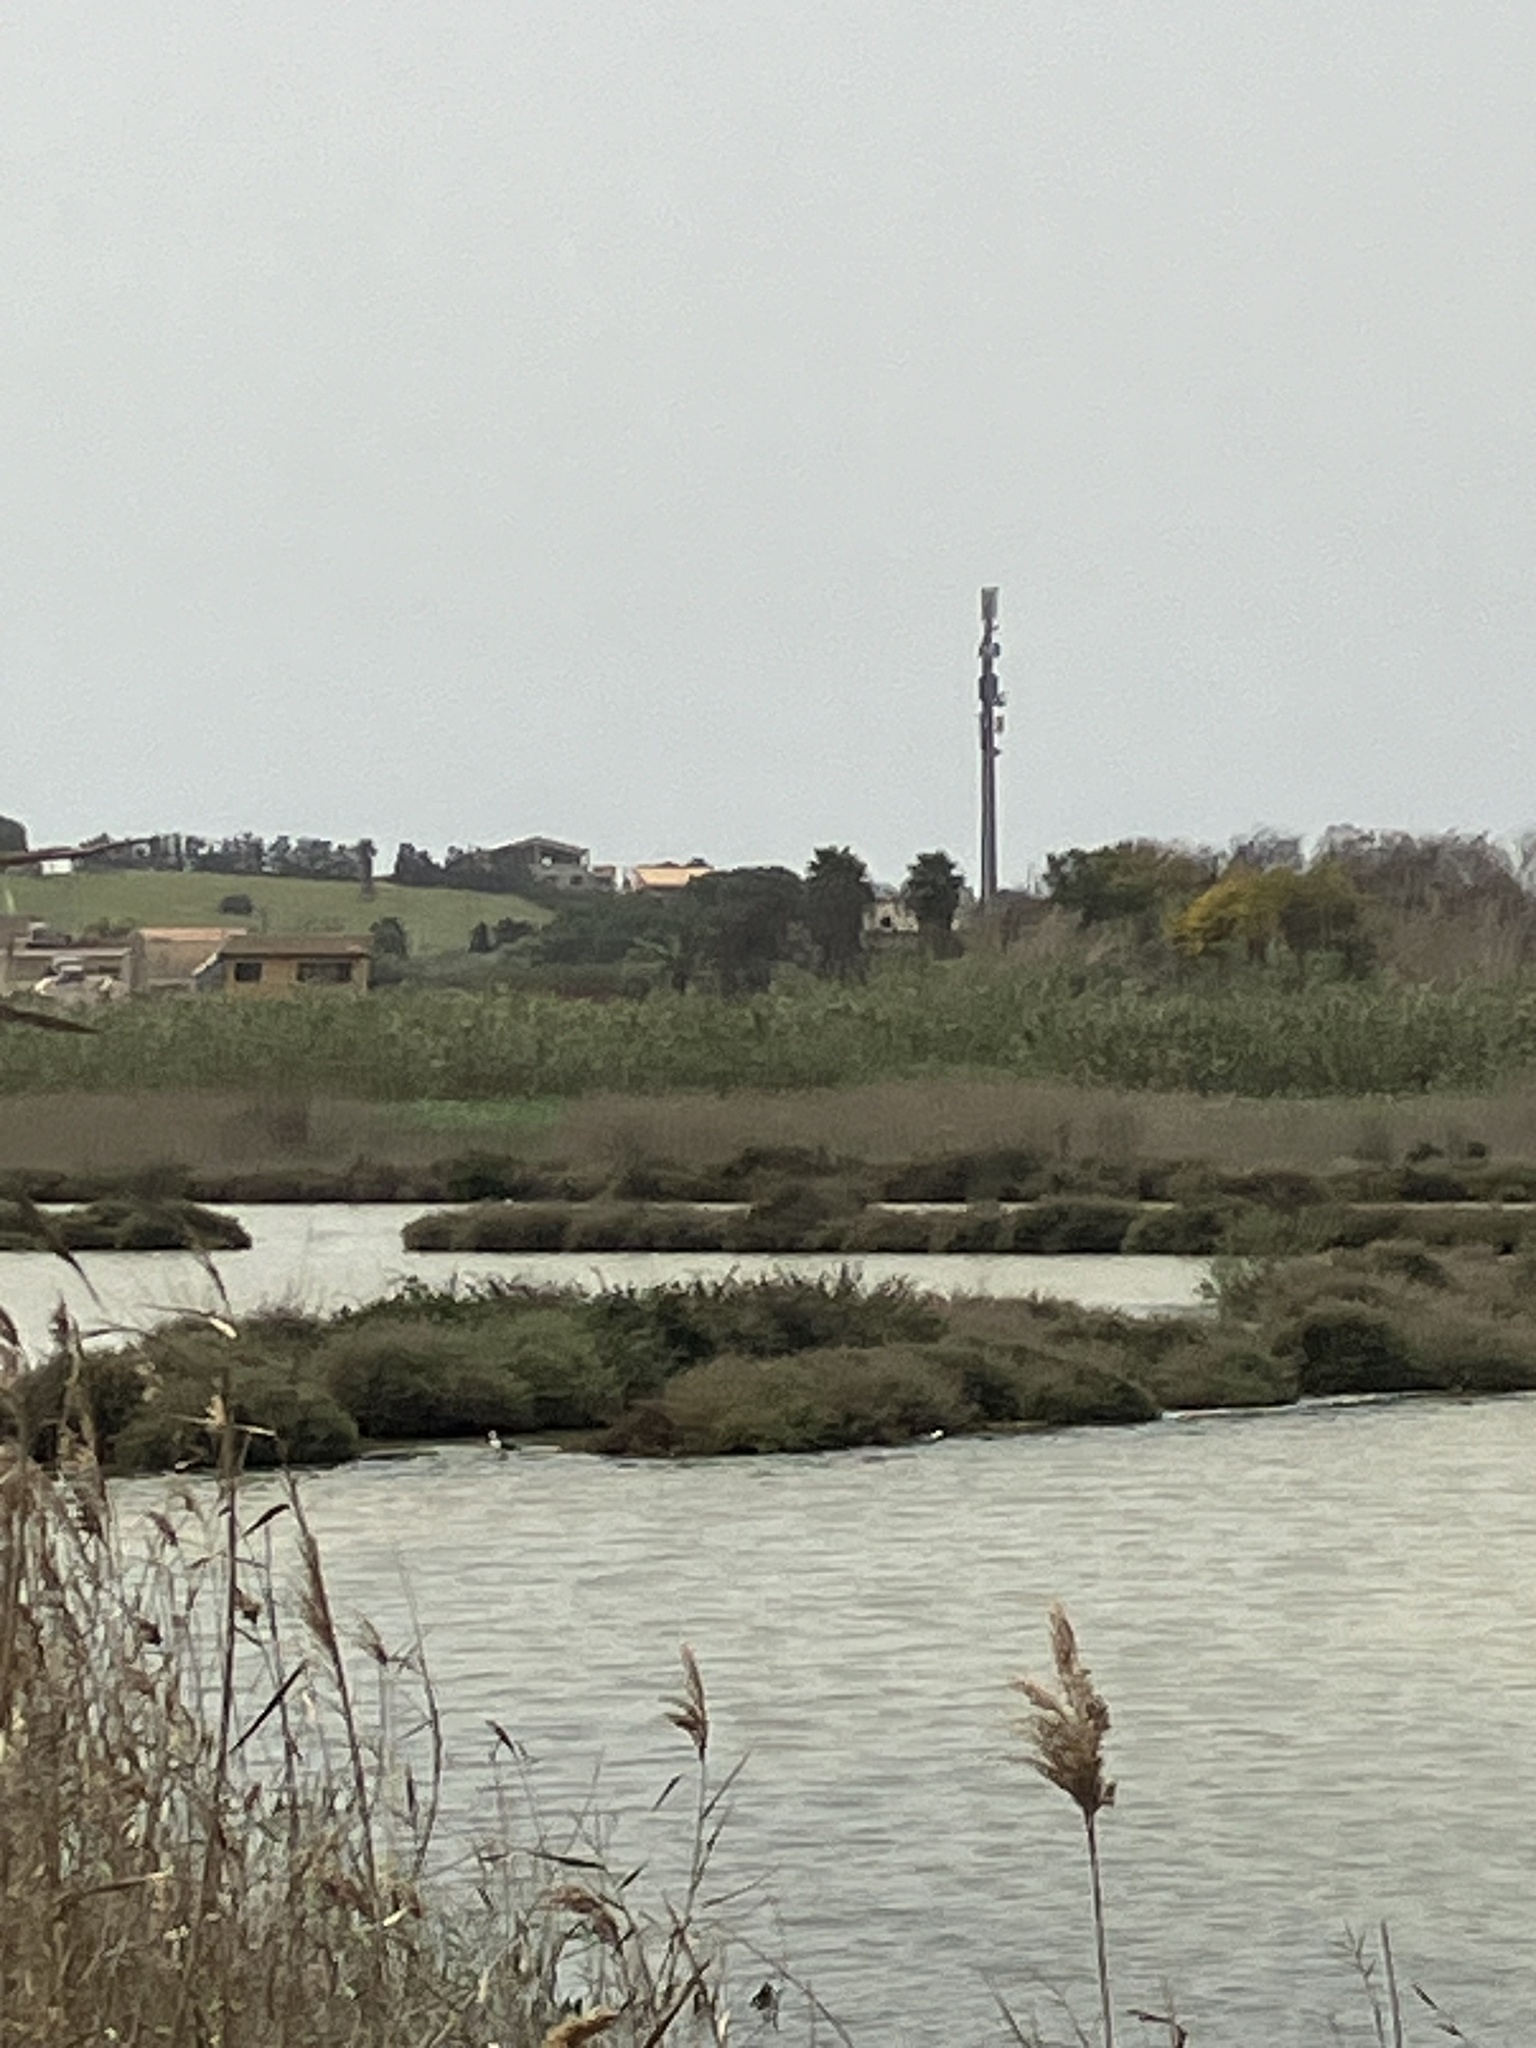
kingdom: Animalia
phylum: Chordata
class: Aves
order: Charadriiformes
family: Recurvirostridae
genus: Himantopus
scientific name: Himantopus himantopus
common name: Black-winged stilt
